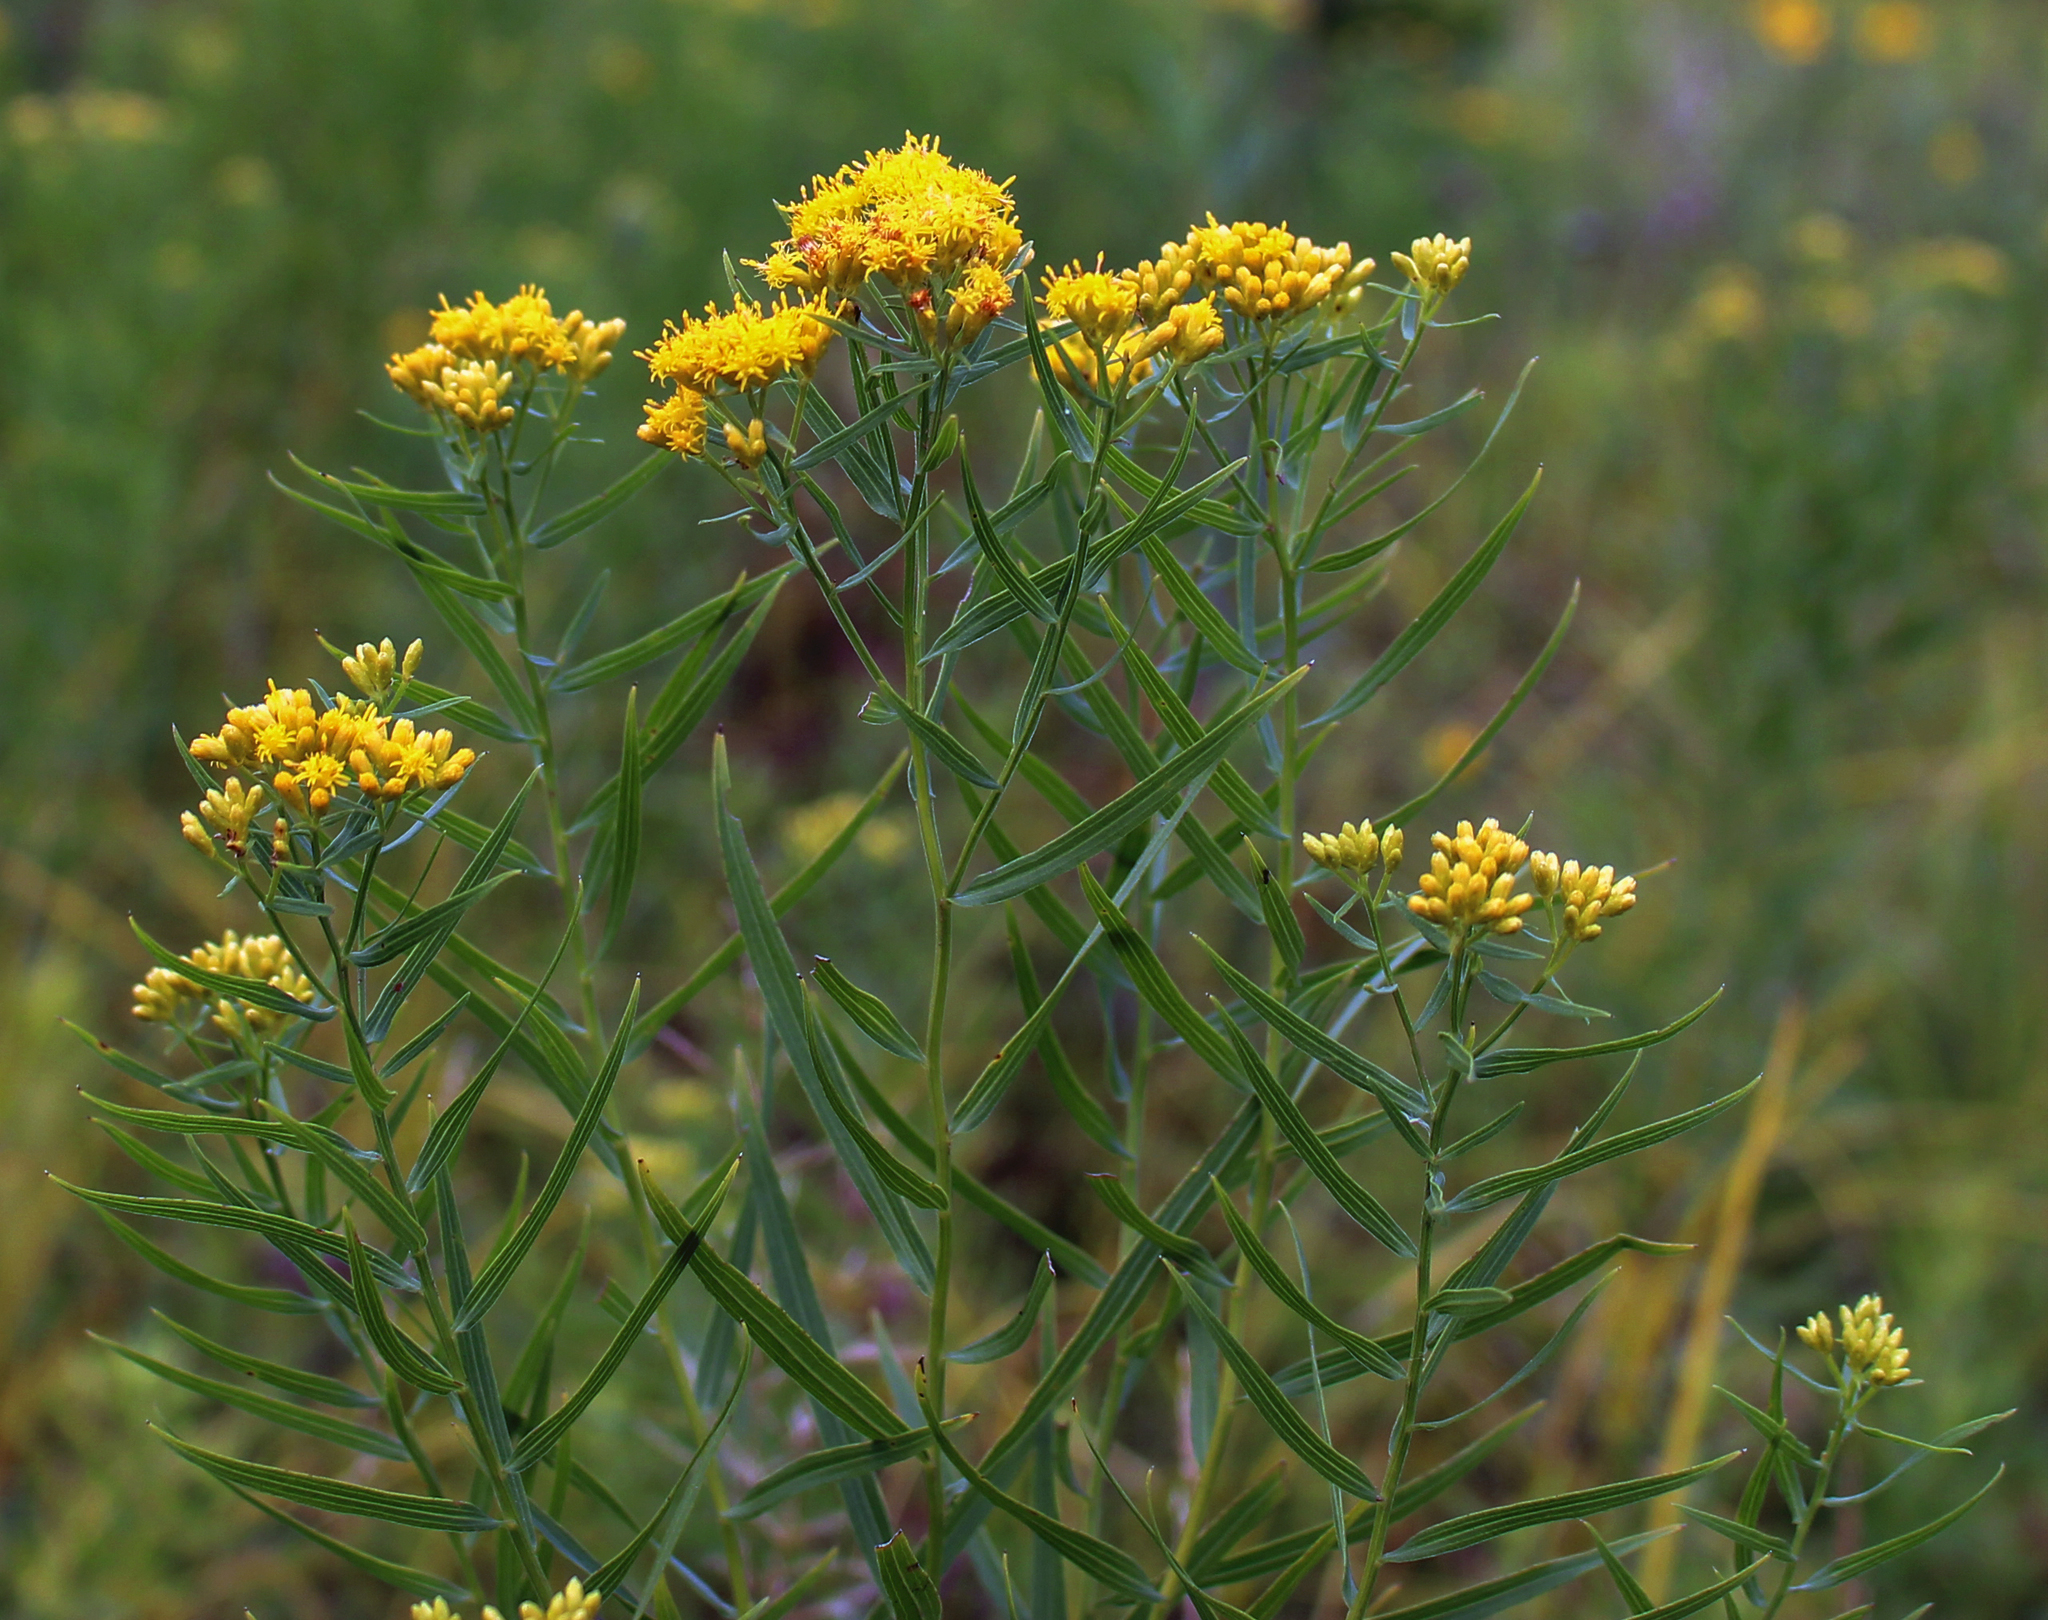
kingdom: Plantae
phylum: Tracheophyta
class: Magnoliopsida
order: Asterales
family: Asteraceae
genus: Euthamia
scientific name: Euthamia graminifolia
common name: Common goldentop
